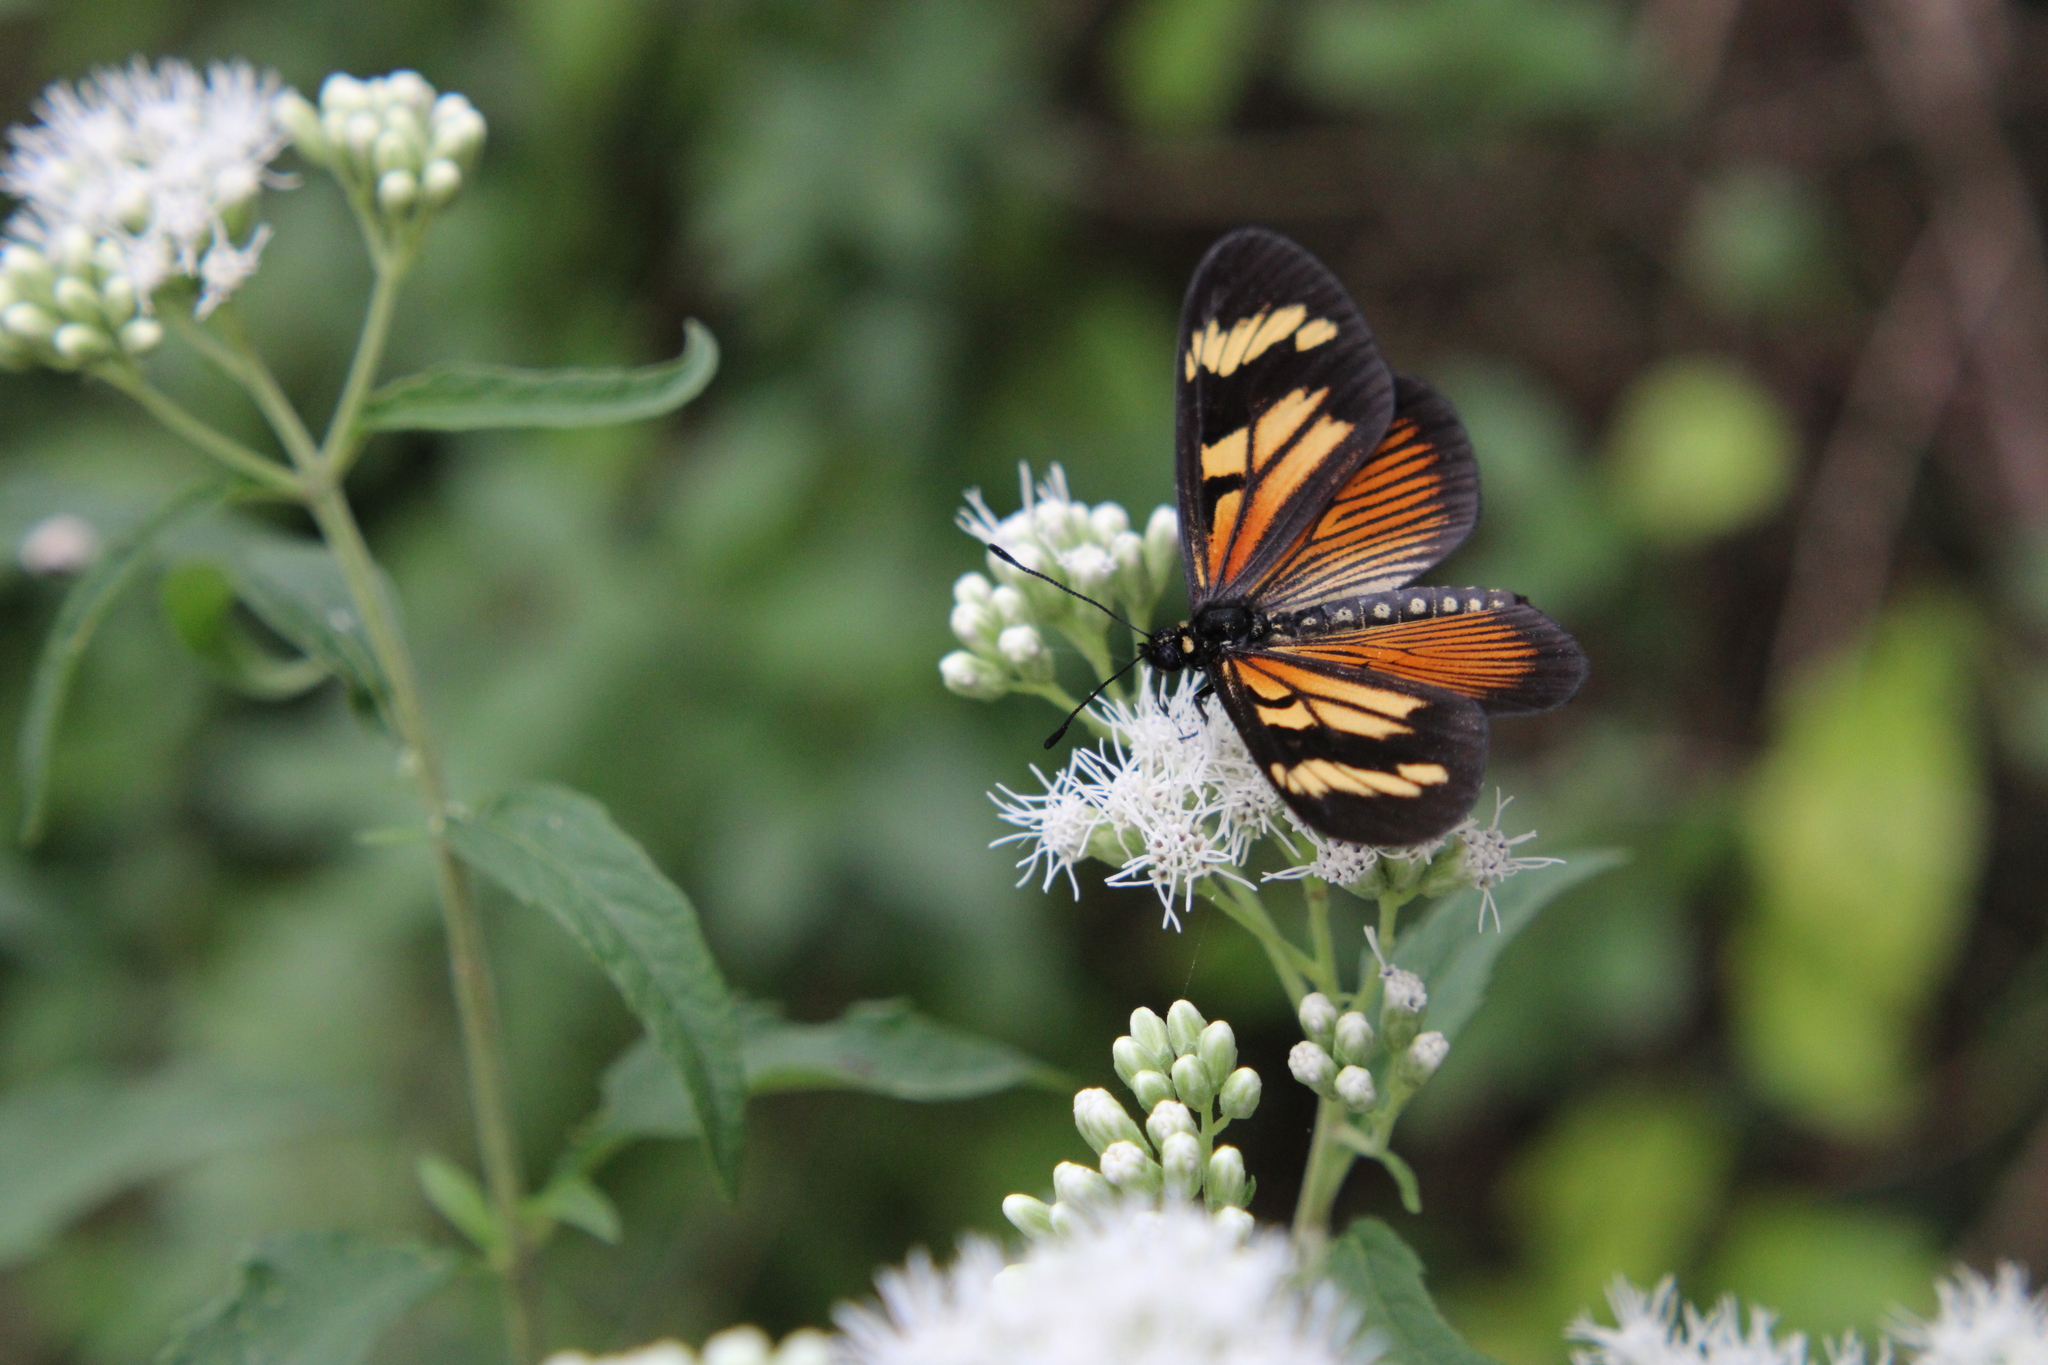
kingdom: Animalia
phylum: Arthropoda
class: Insecta
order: Lepidoptera
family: Nymphalidae
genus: Actinote
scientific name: Actinote pellenea
